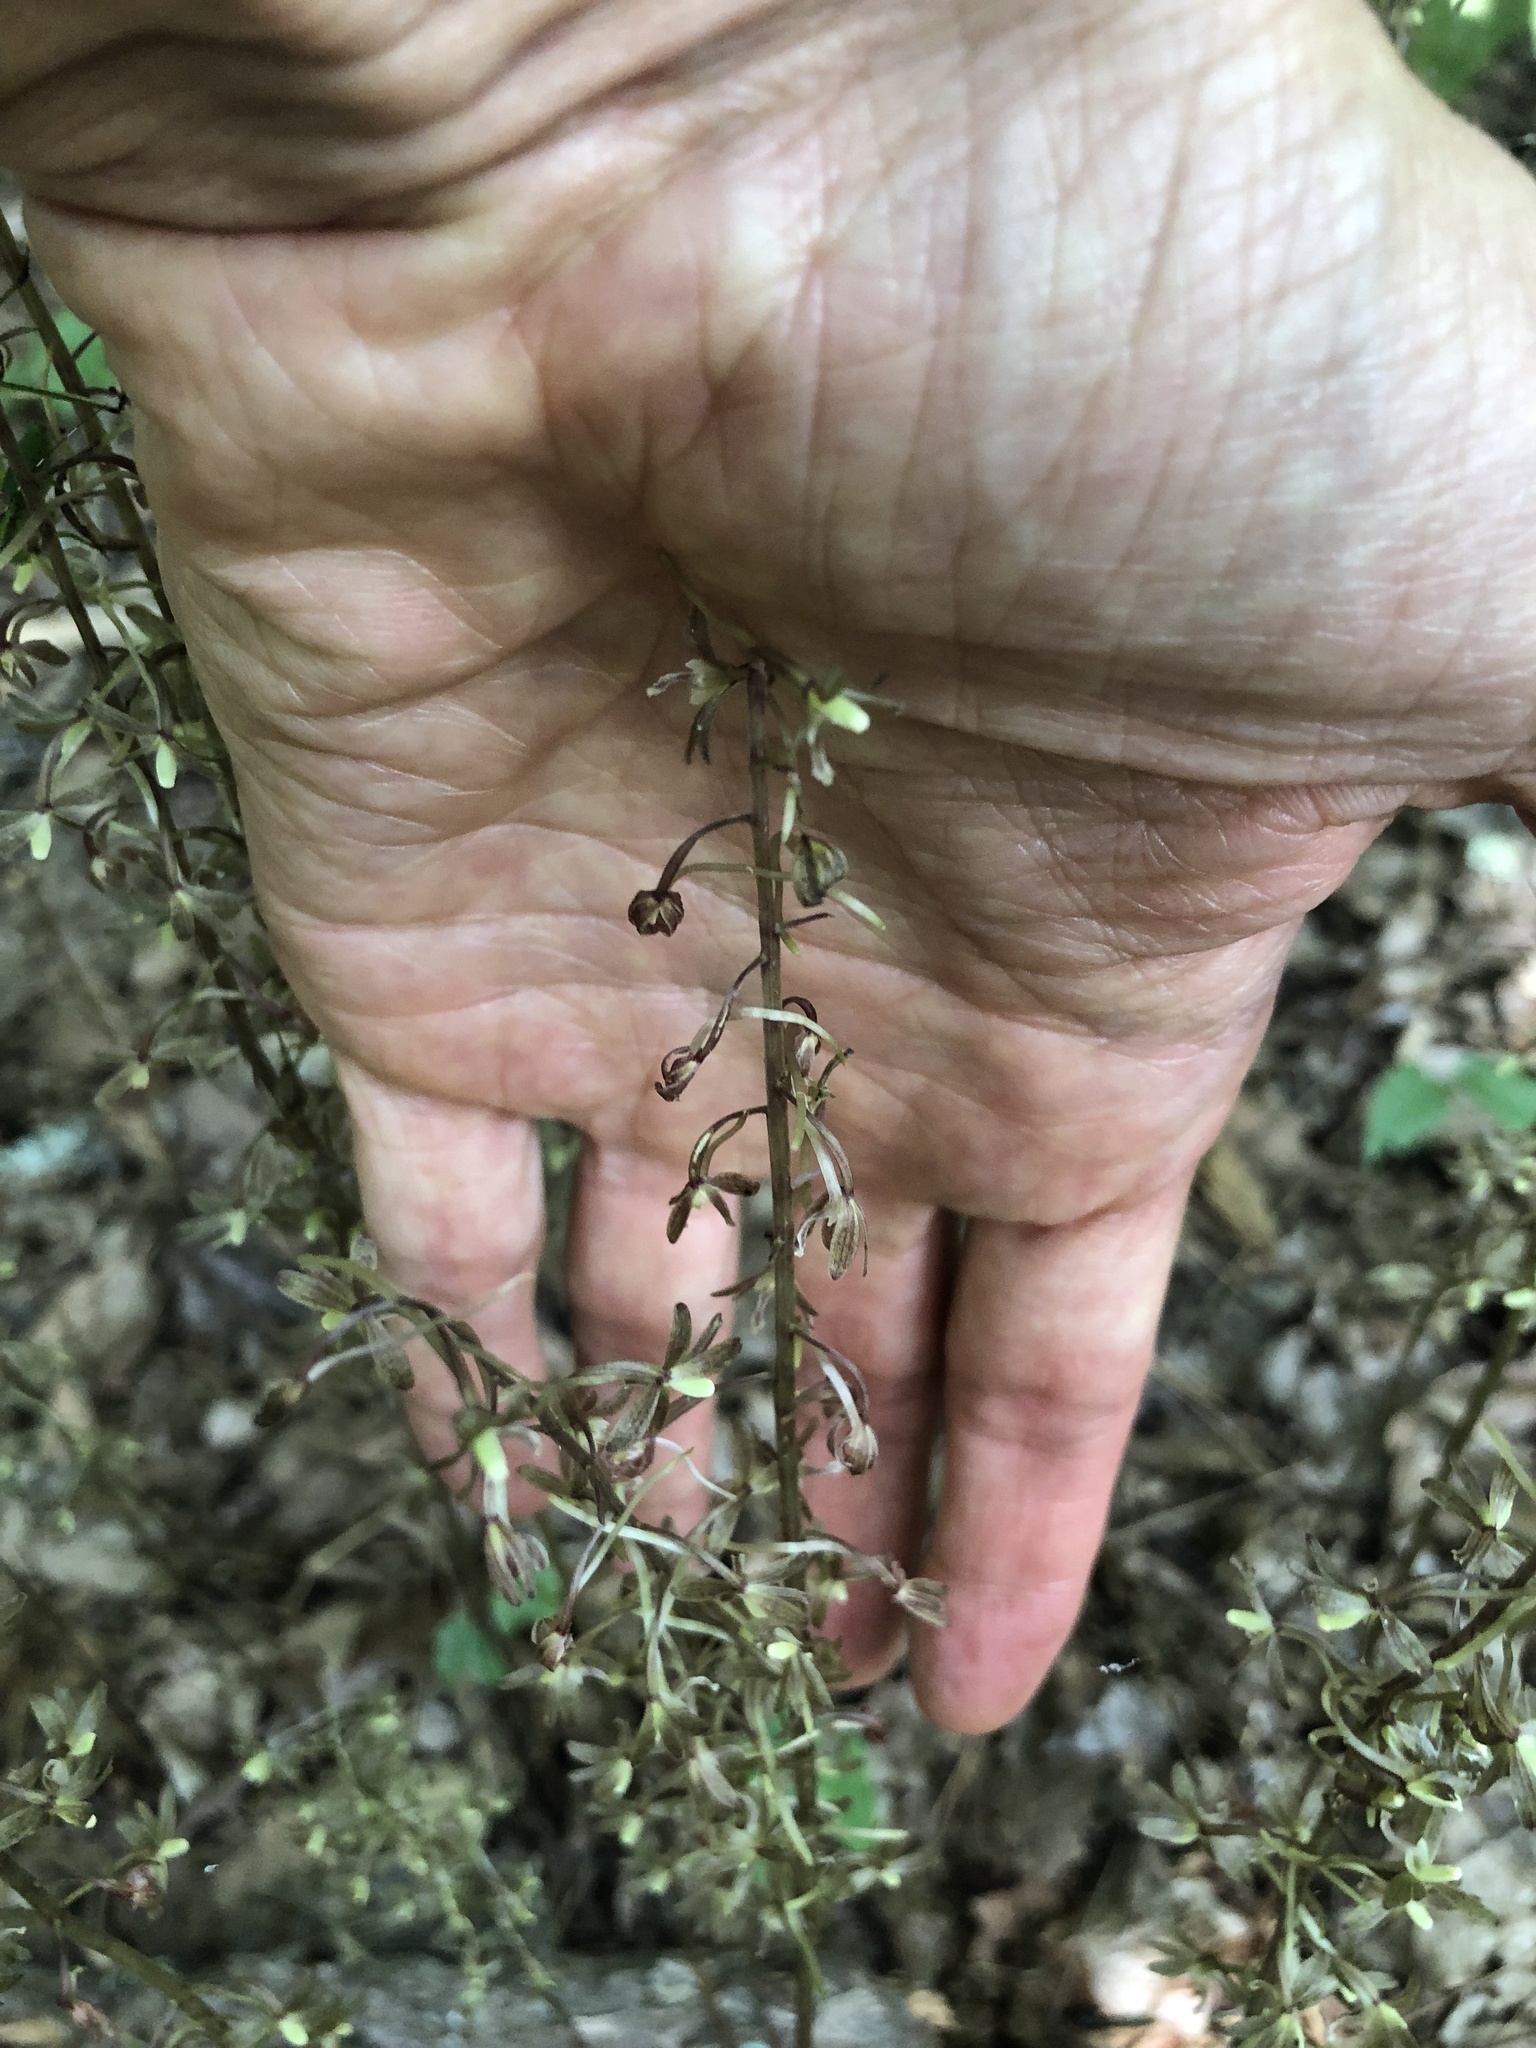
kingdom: Plantae
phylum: Tracheophyta
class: Liliopsida
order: Asparagales
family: Orchidaceae
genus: Tipularia
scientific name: Tipularia discolor
